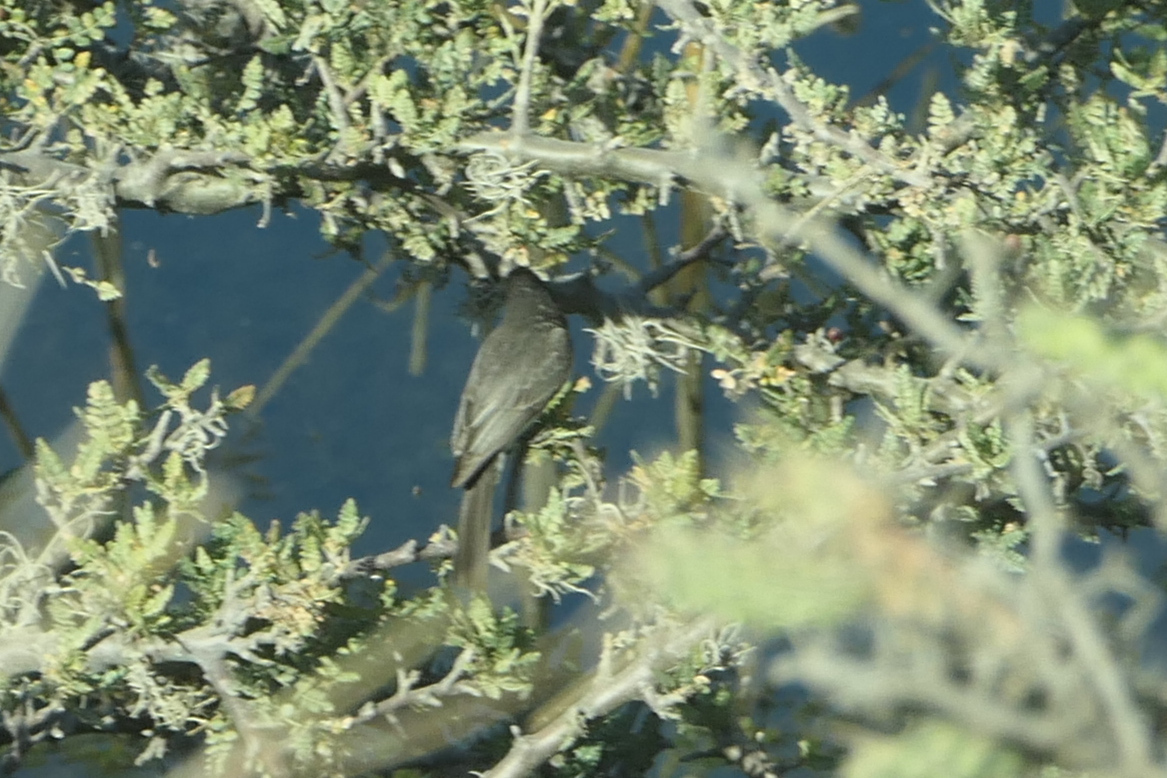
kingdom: Animalia
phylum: Chordata
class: Aves
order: Passeriformes
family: Tyrannidae
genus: Sayornis
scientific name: Sayornis nigricans
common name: Black phoebe
